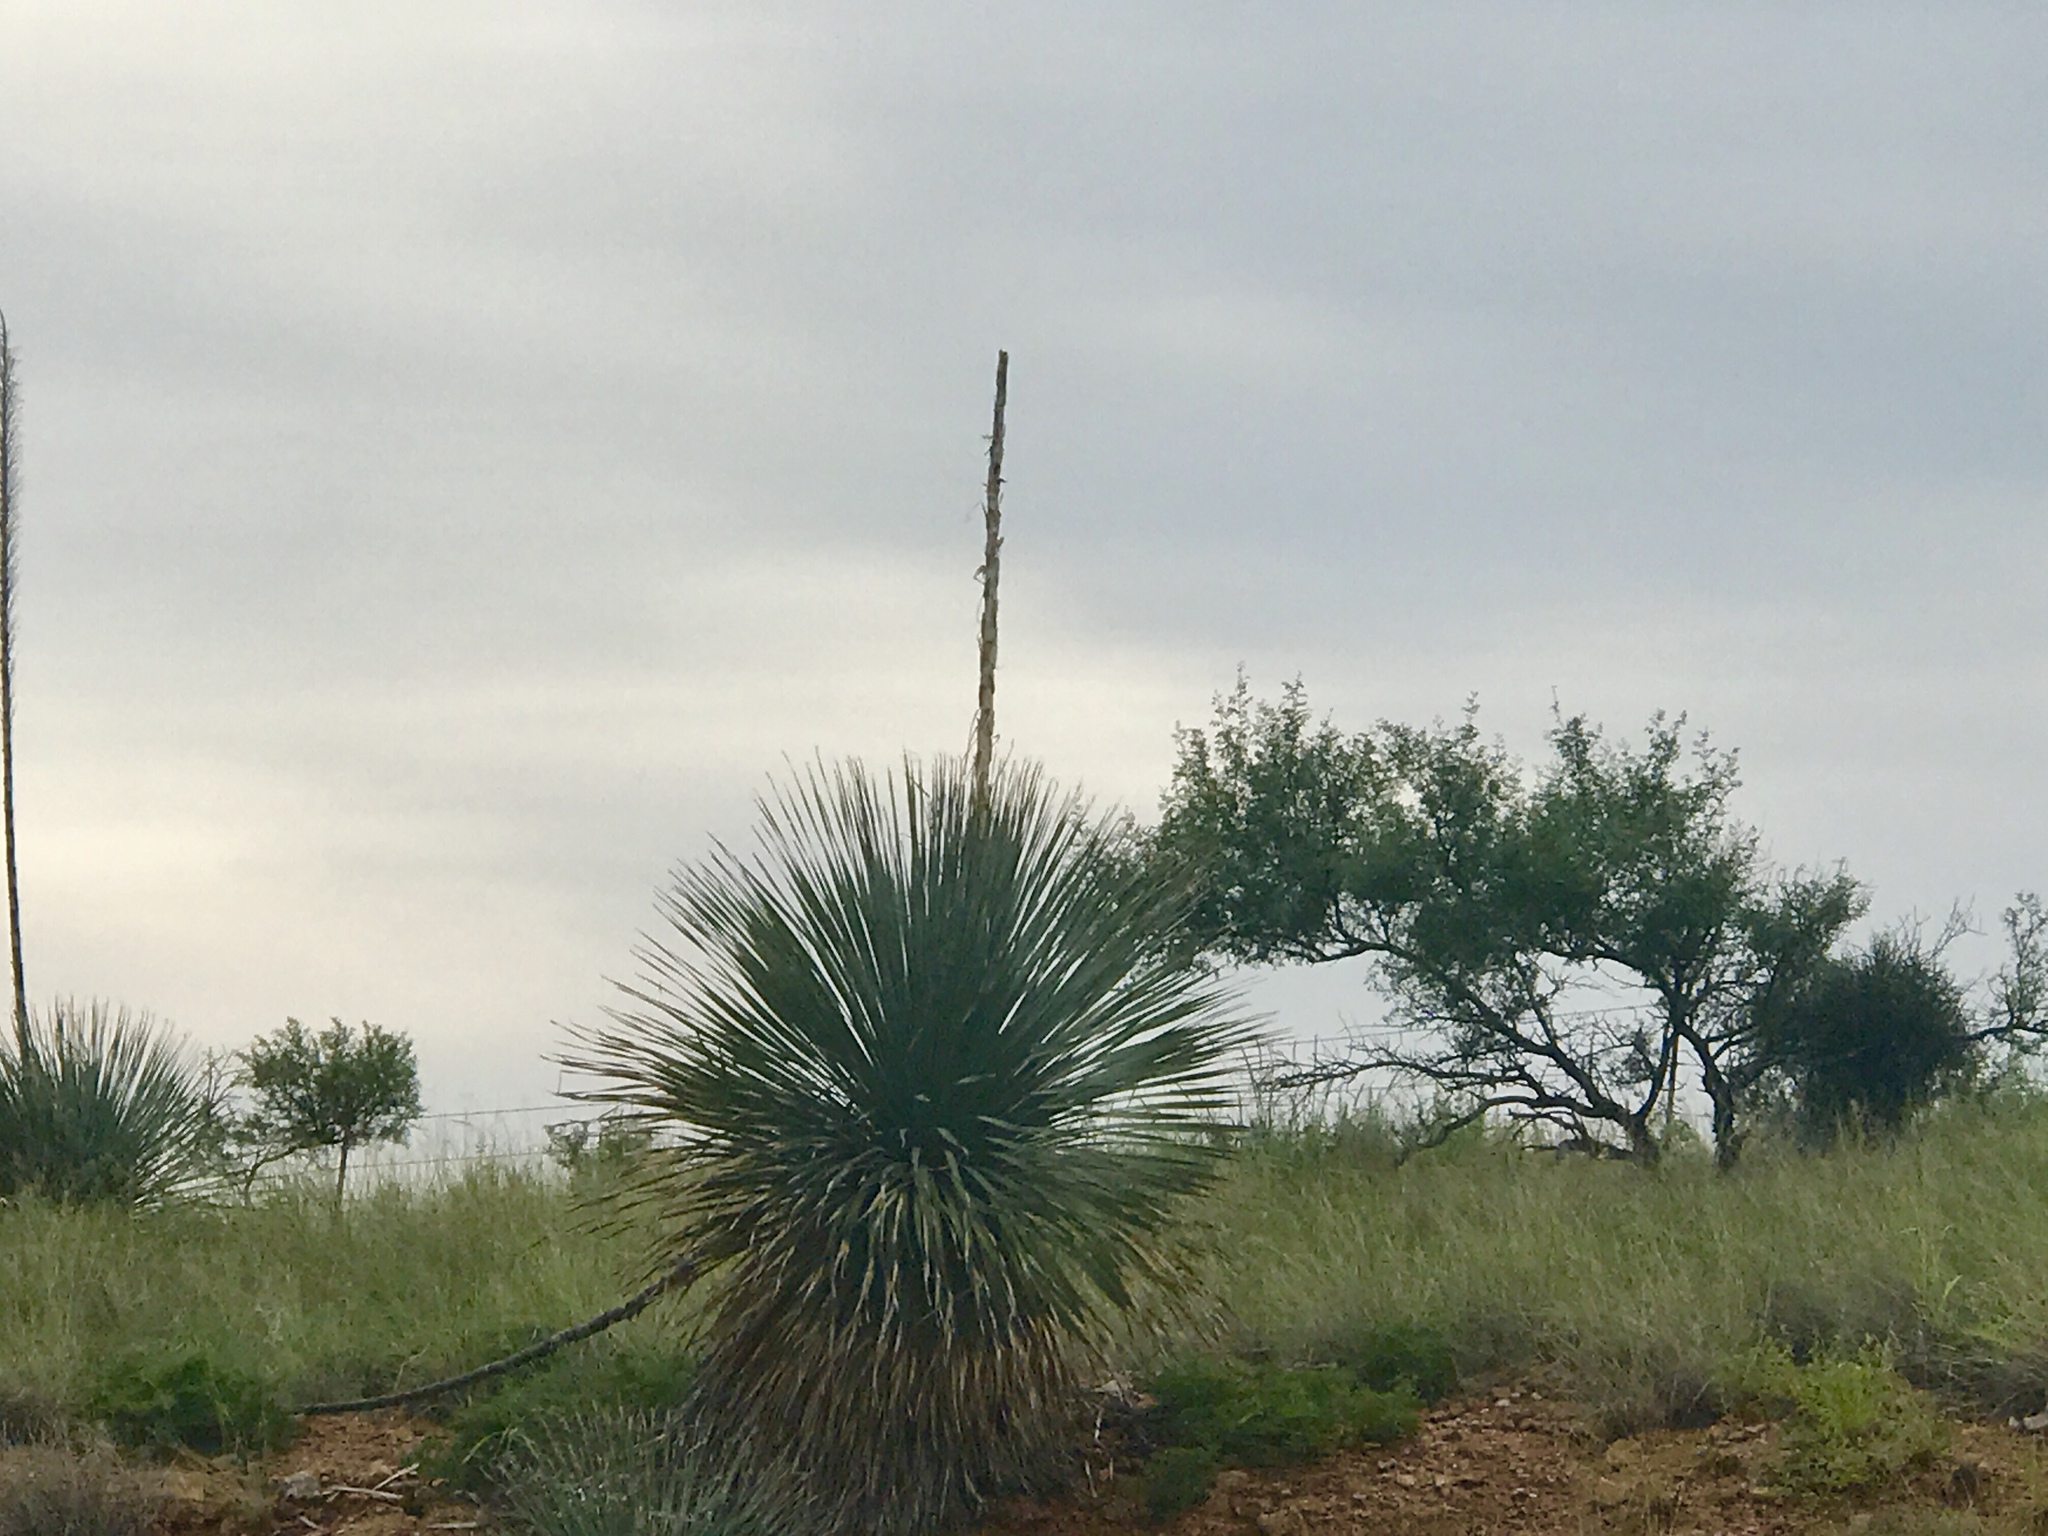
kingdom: Plantae
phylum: Tracheophyta
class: Liliopsida
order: Asparagales
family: Asparagaceae
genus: Dasylirion
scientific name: Dasylirion wheeleri
